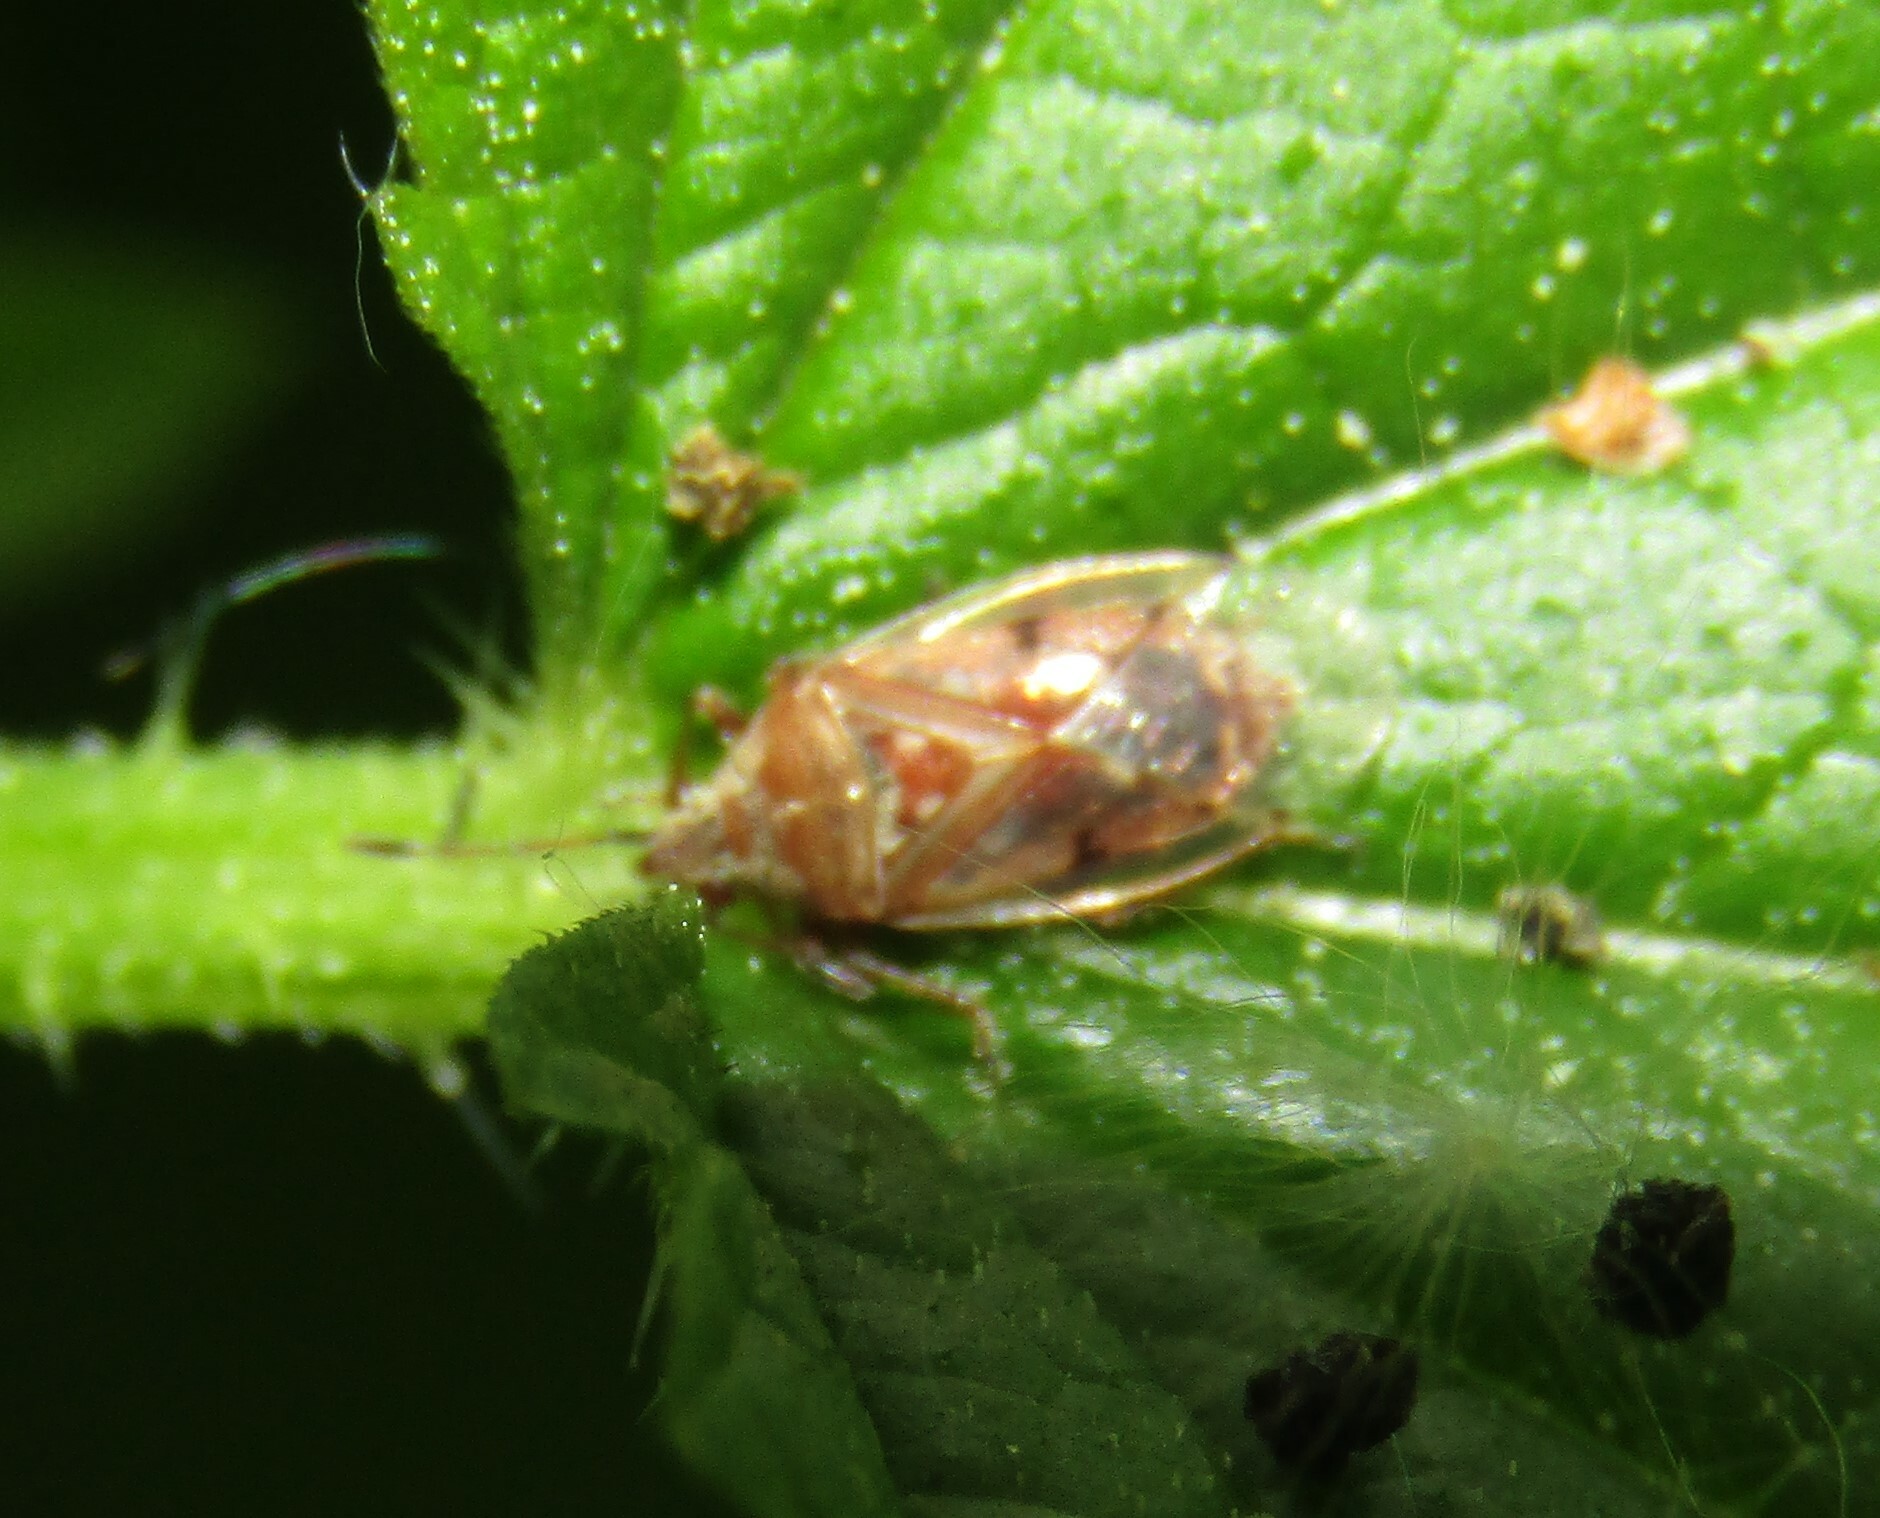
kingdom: Animalia
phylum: Arthropoda
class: Insecta
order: Hemiptera
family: Lygaeidae
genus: Kleidocerys
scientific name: Kleidocerys resedae
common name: Birch catkin bug
